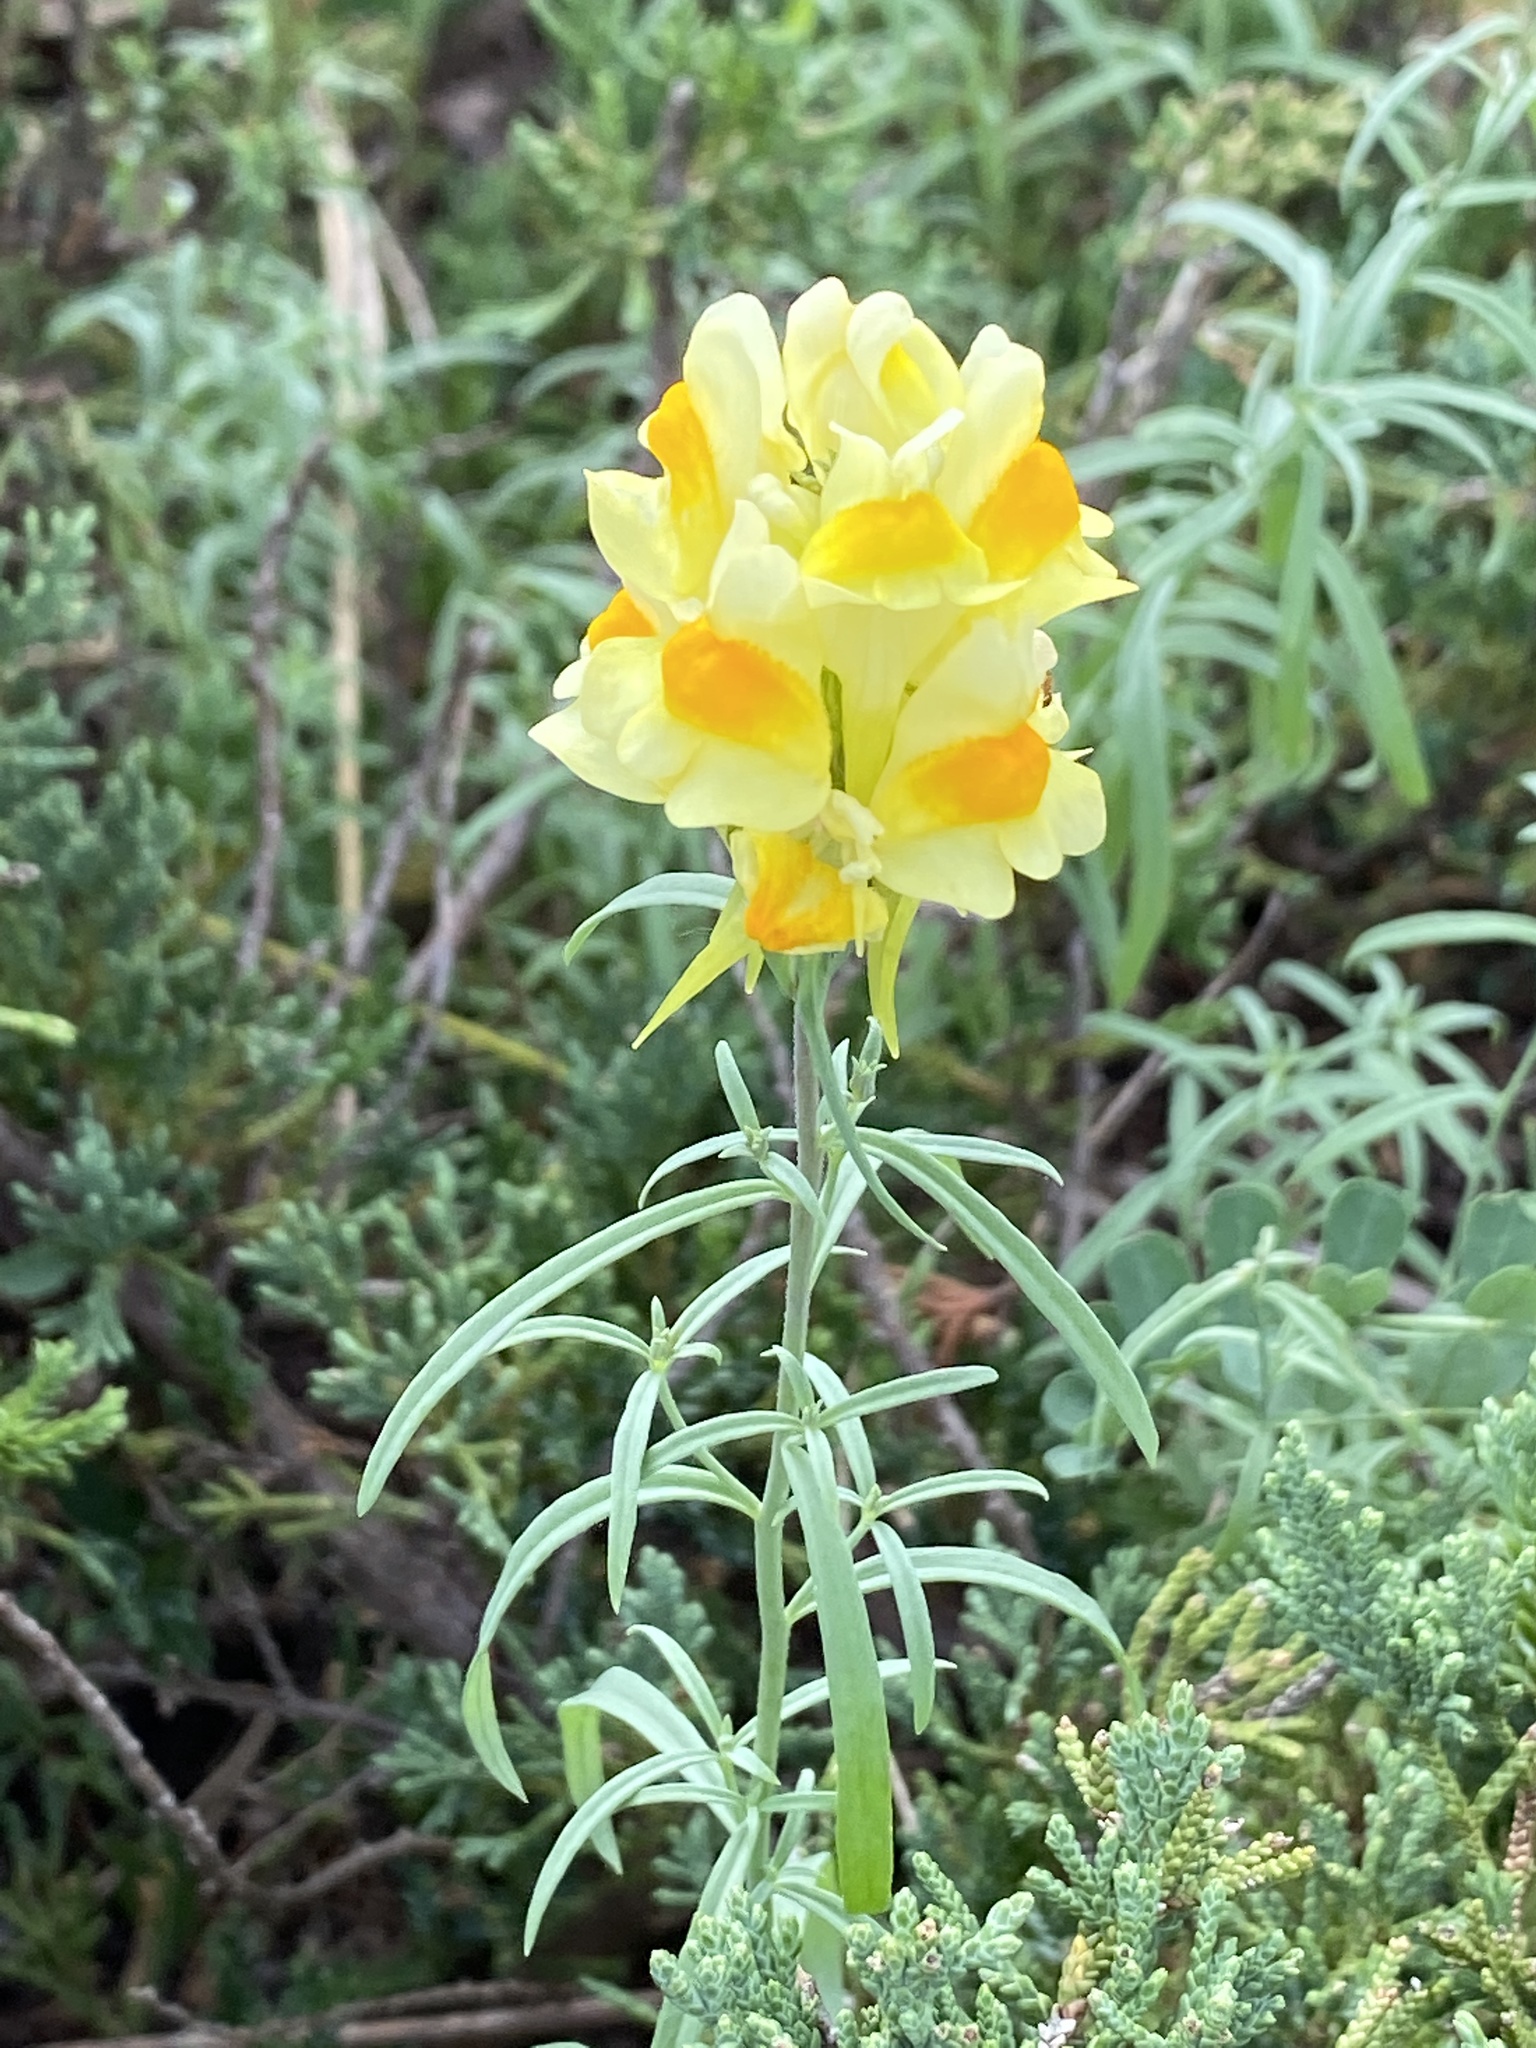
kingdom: Plantae
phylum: Tracheophyta
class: Magnoliopsida
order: Lamiales
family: Plantaginaceae
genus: Linaria
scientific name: Linaria vulgaris
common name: Butter and eggs
